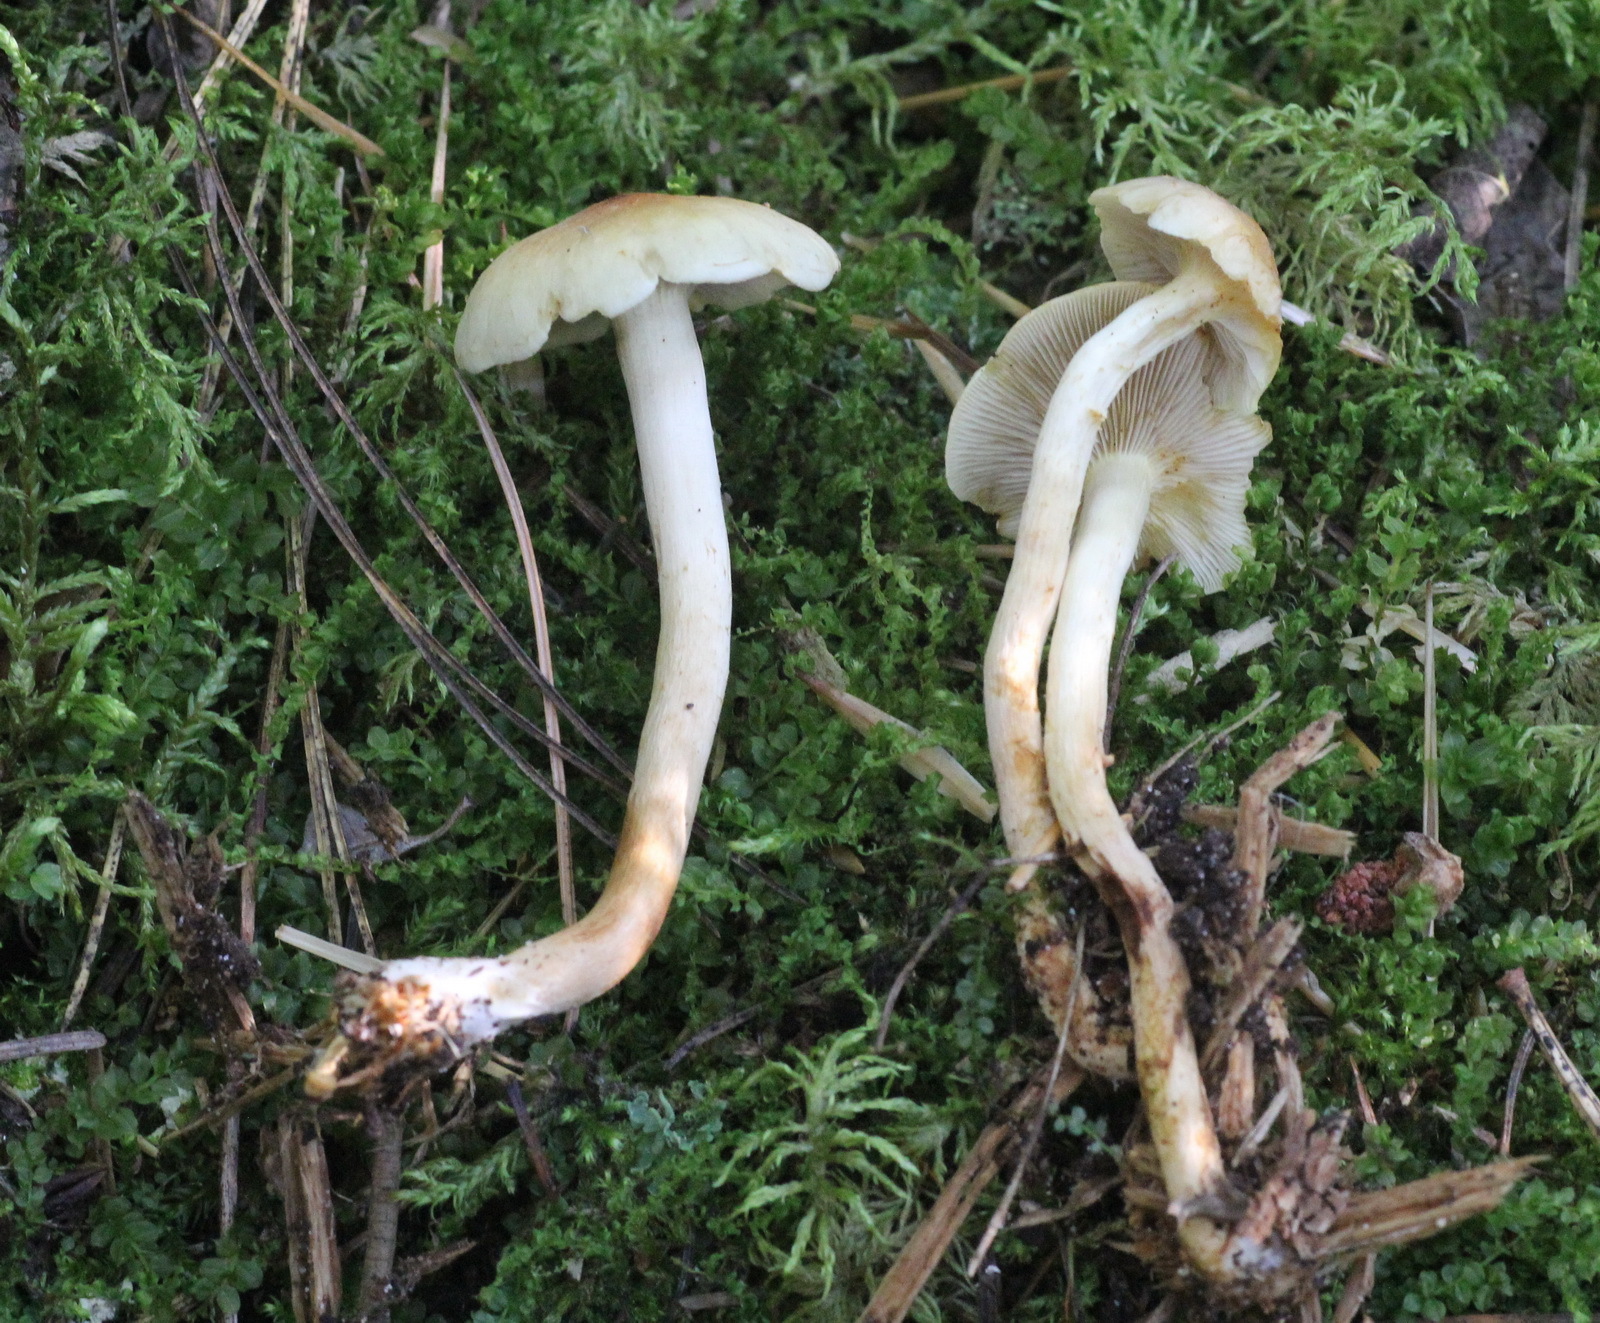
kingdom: Fungi
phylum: Basidiomycota
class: Agaricomycetes
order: Agaricales
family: Strophariaceae
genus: Hypholoma
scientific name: Hypholoma capnoides
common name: Conifer tuft
